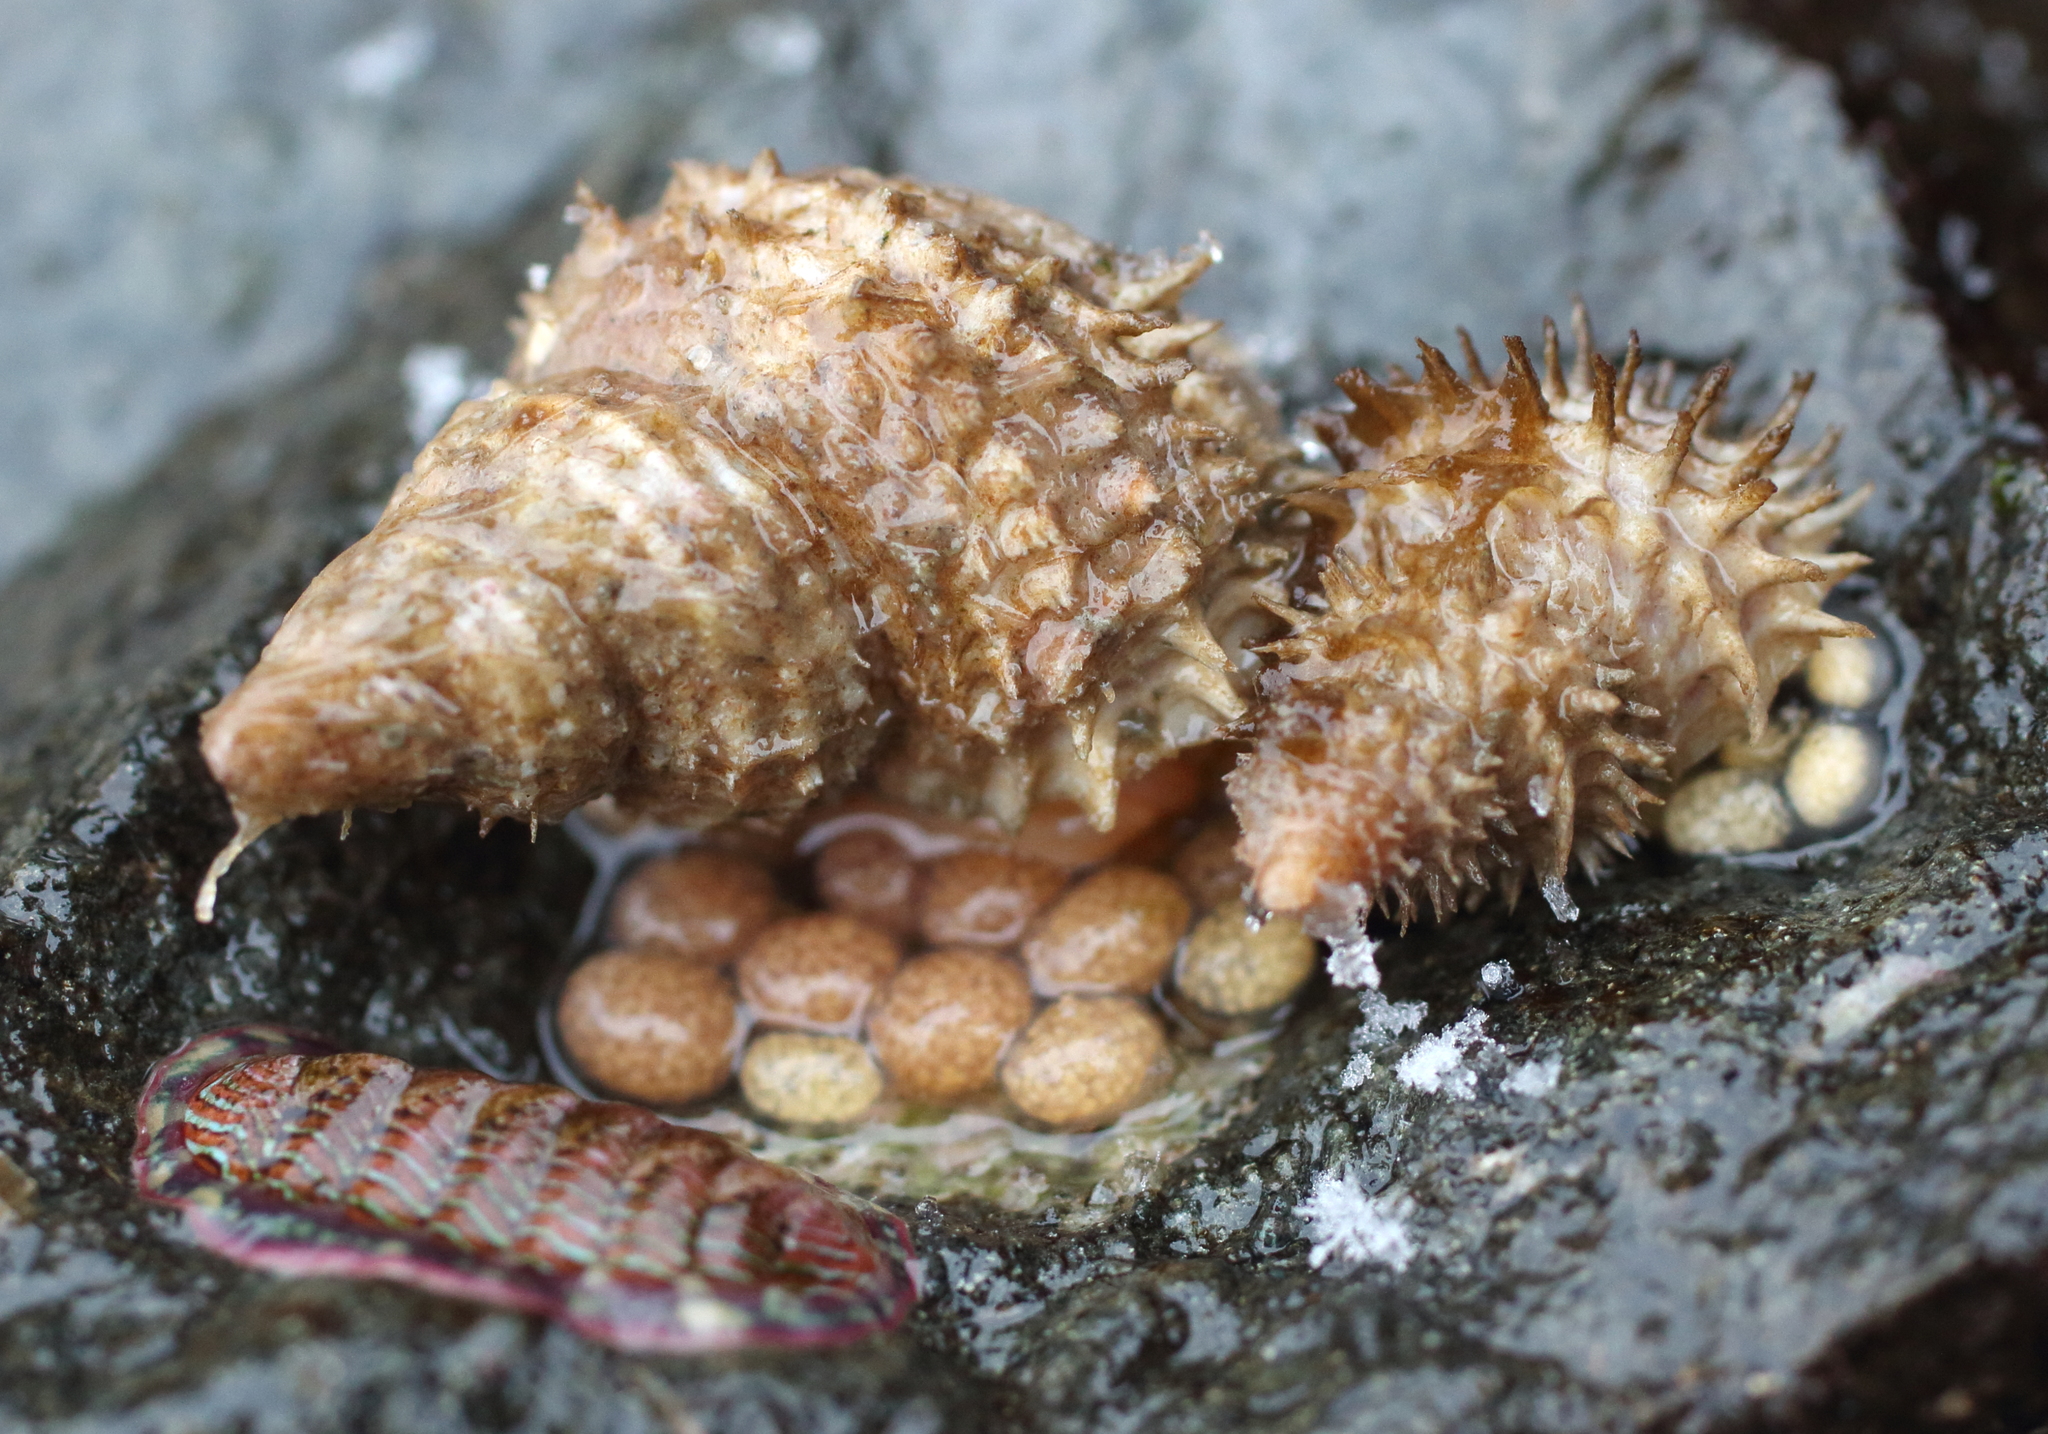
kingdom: Animalia
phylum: Mollusca
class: Gastropoda
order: Littorinimorpha
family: Capulidae
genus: Trichotropis
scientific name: Trichotropis cancellata
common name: Cancellate hairysnail
